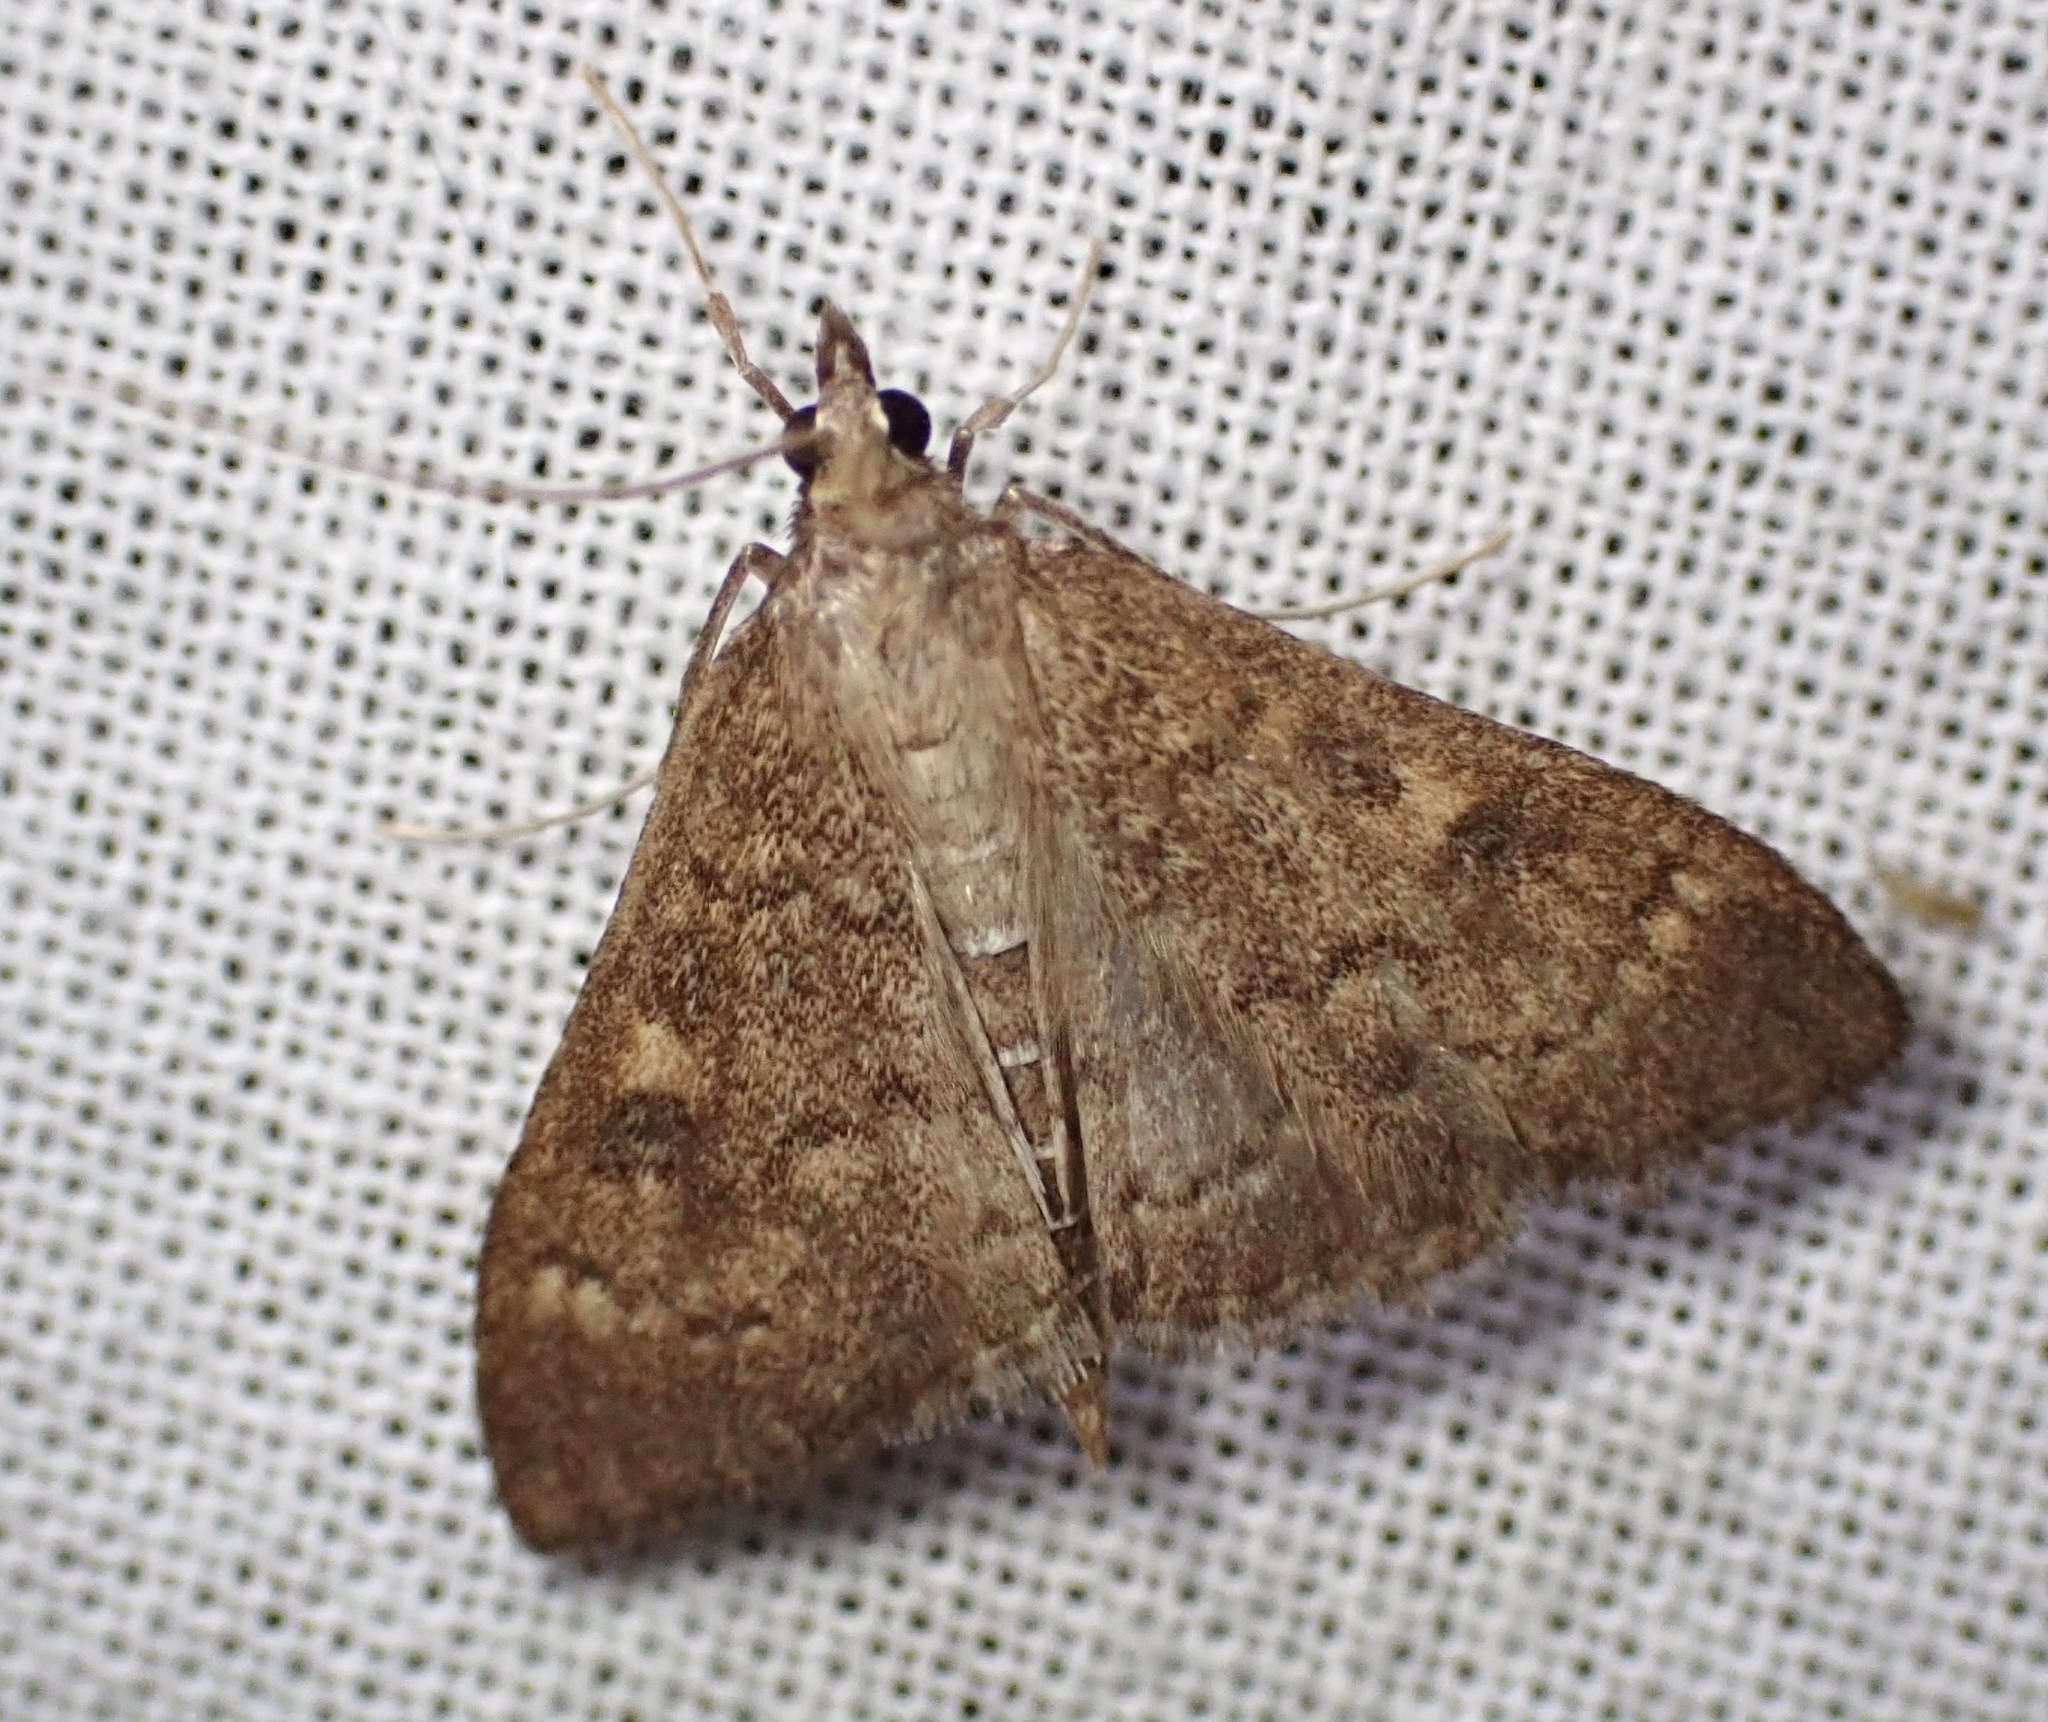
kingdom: Animalia
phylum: Arthropoda
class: Insecta
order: Lepidoptera
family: Crambidae
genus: Mecyna
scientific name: Mecyna mustelinalis
